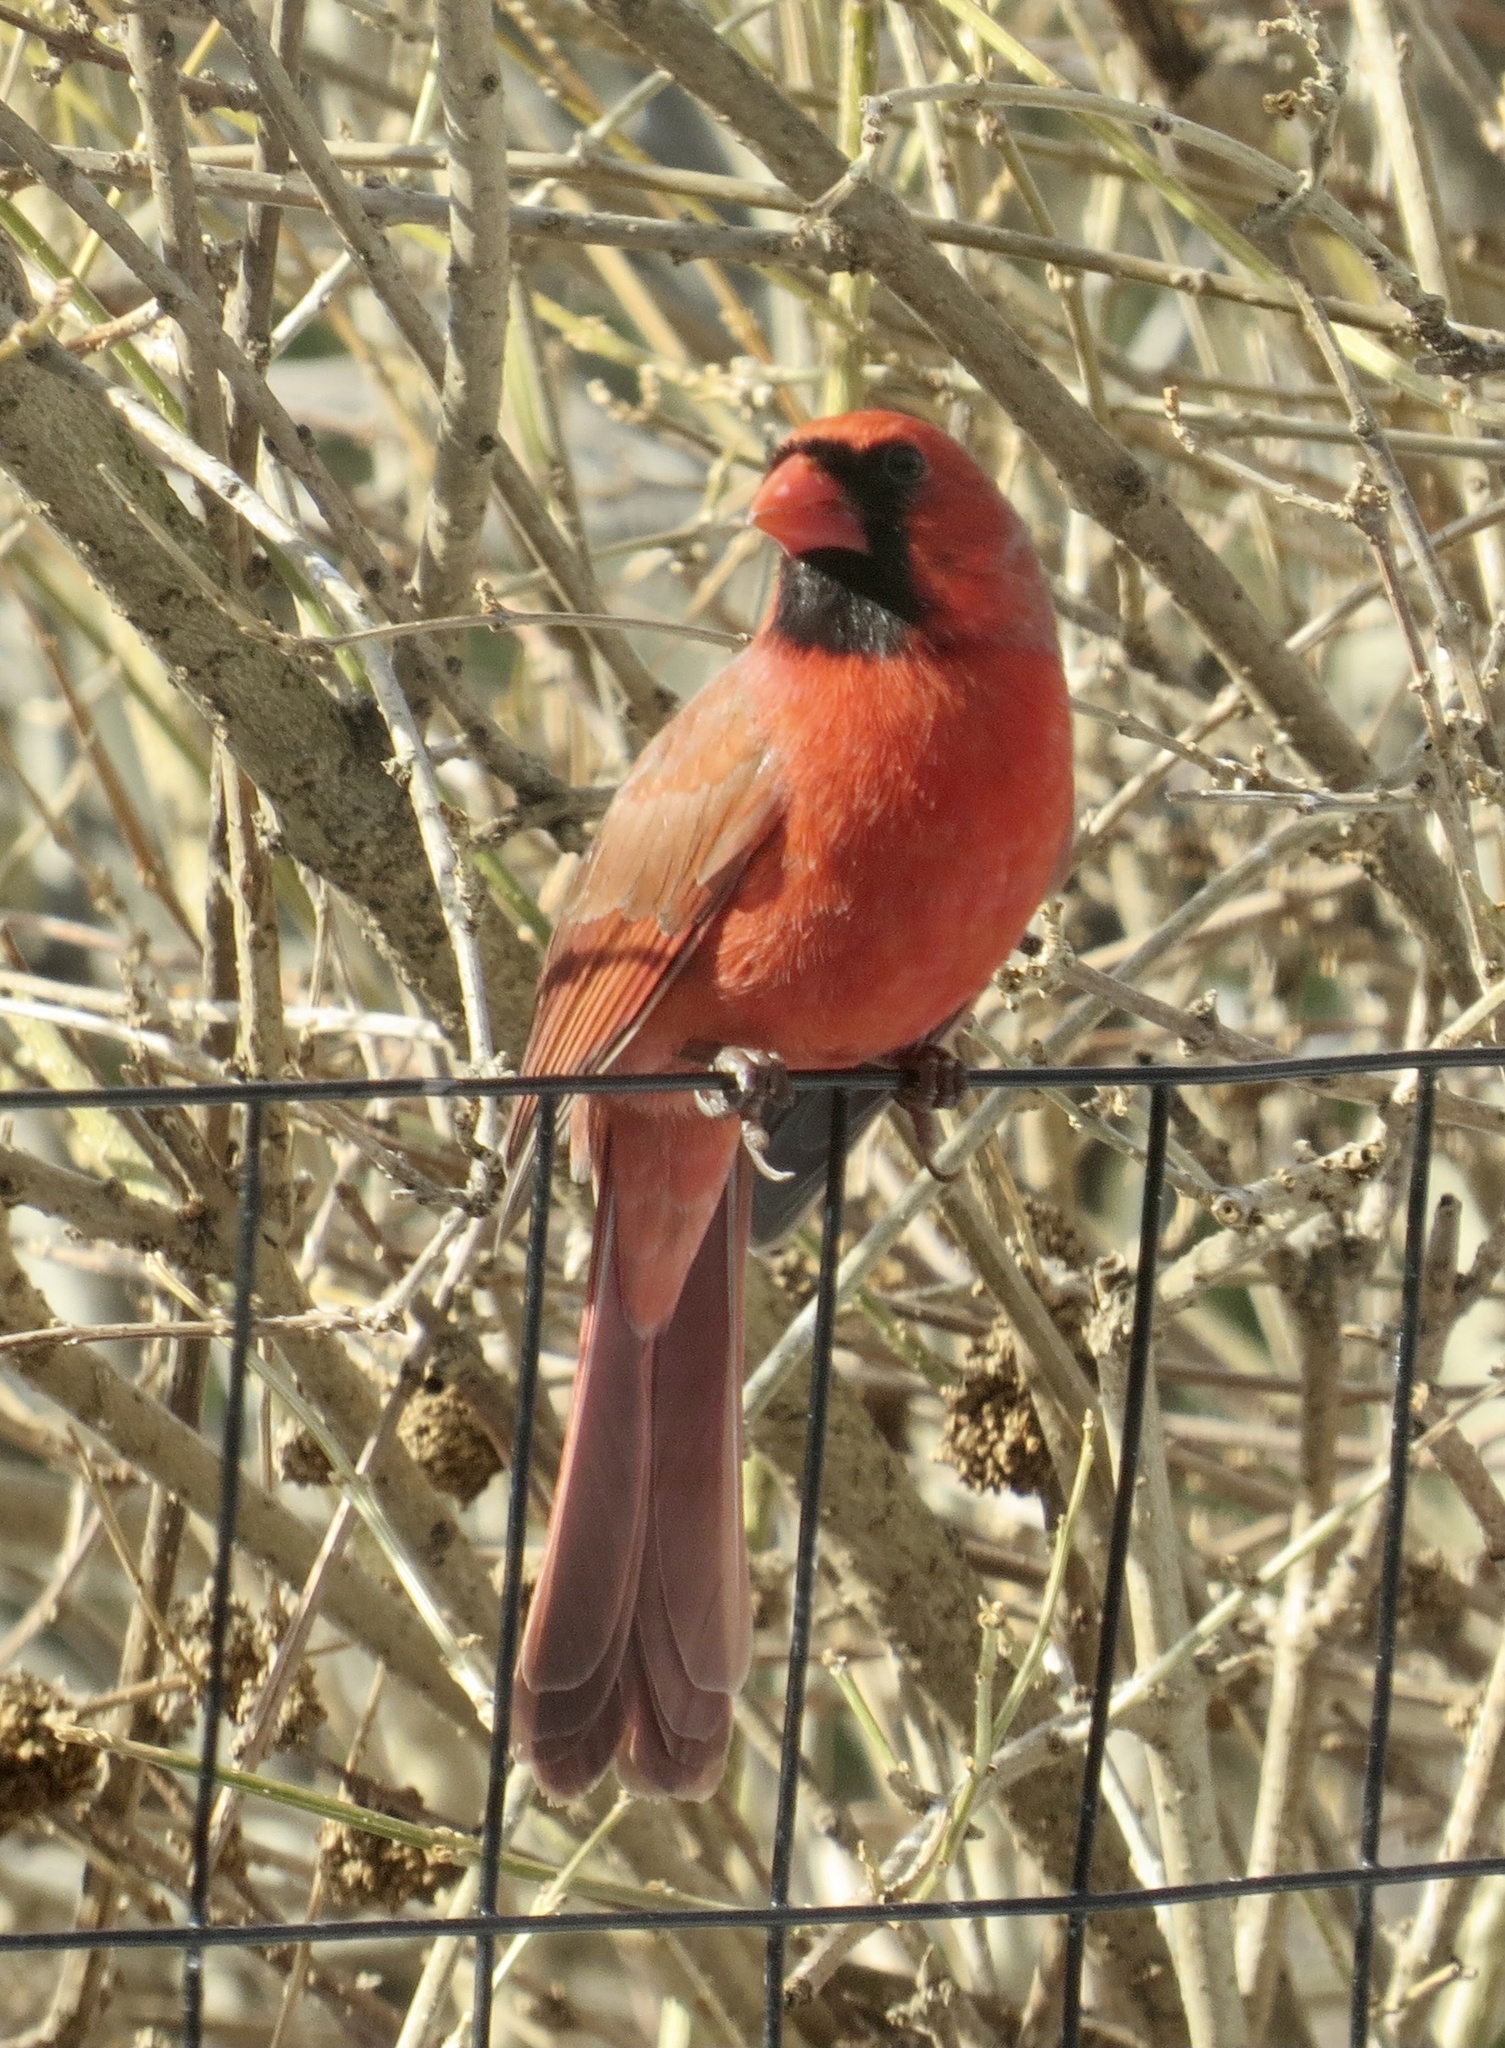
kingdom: Animalia
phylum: Chordata
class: Aves
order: Passeriformes
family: Cardinalidae
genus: Cardinalis
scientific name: Cardinalis cardinalis
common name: Northern cardinal
